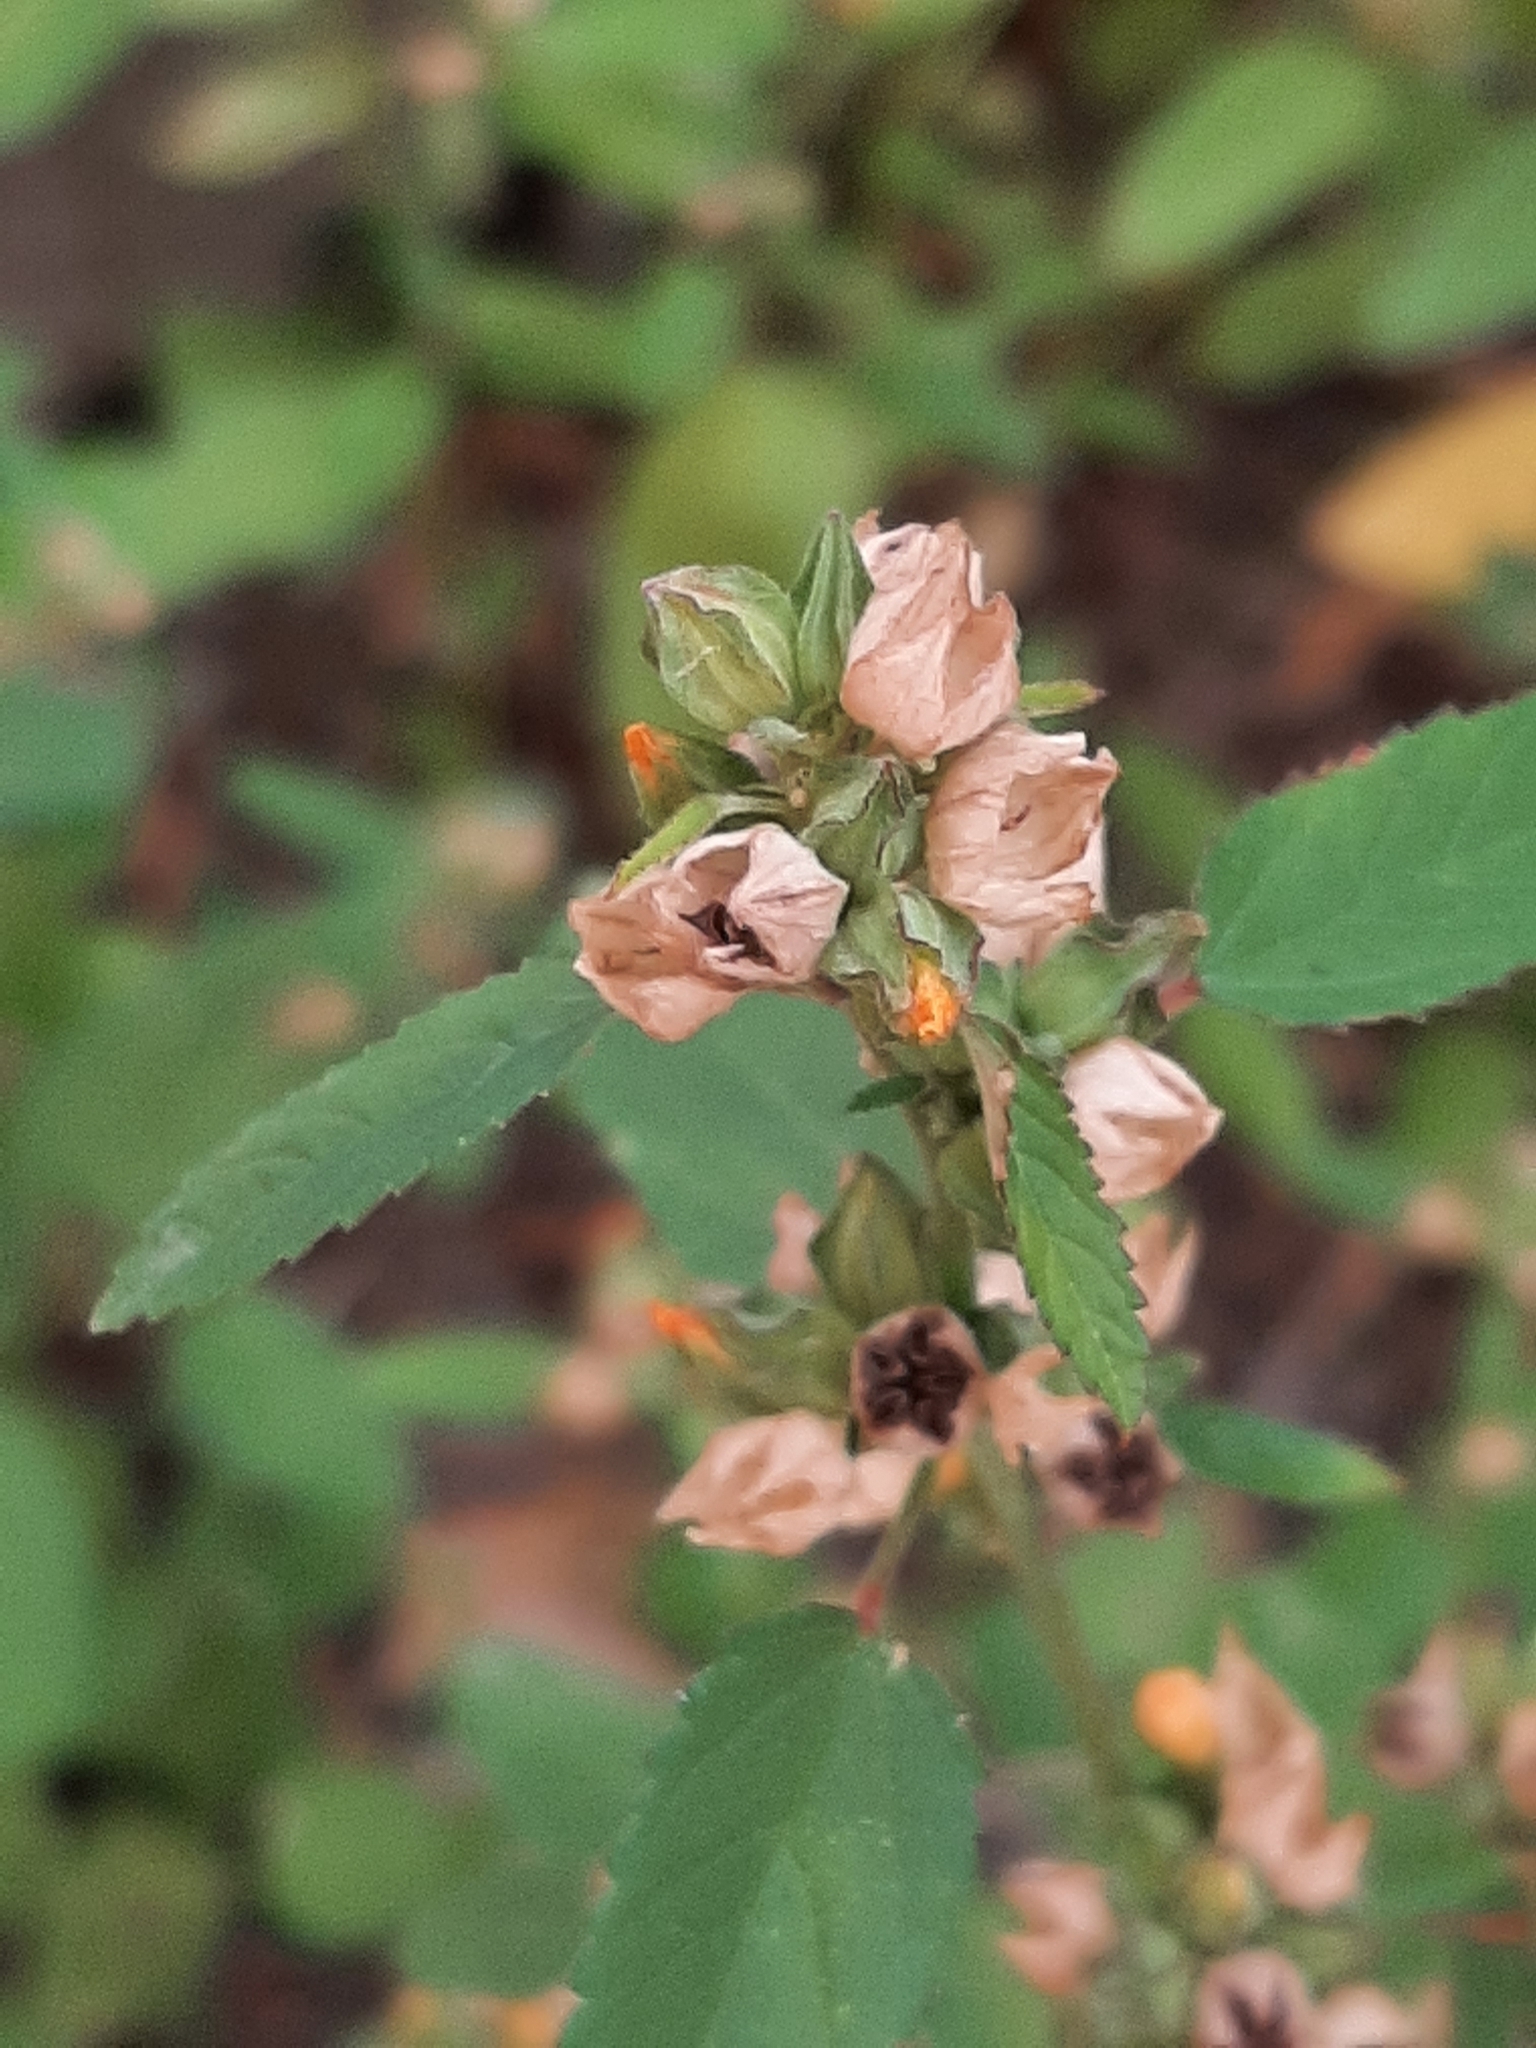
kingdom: Plantae
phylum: Tracheophyta
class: Magnoliopsida
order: Malvales
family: Malvaceae
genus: Sida
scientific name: Sida spinosa
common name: Prickly fanpetals
